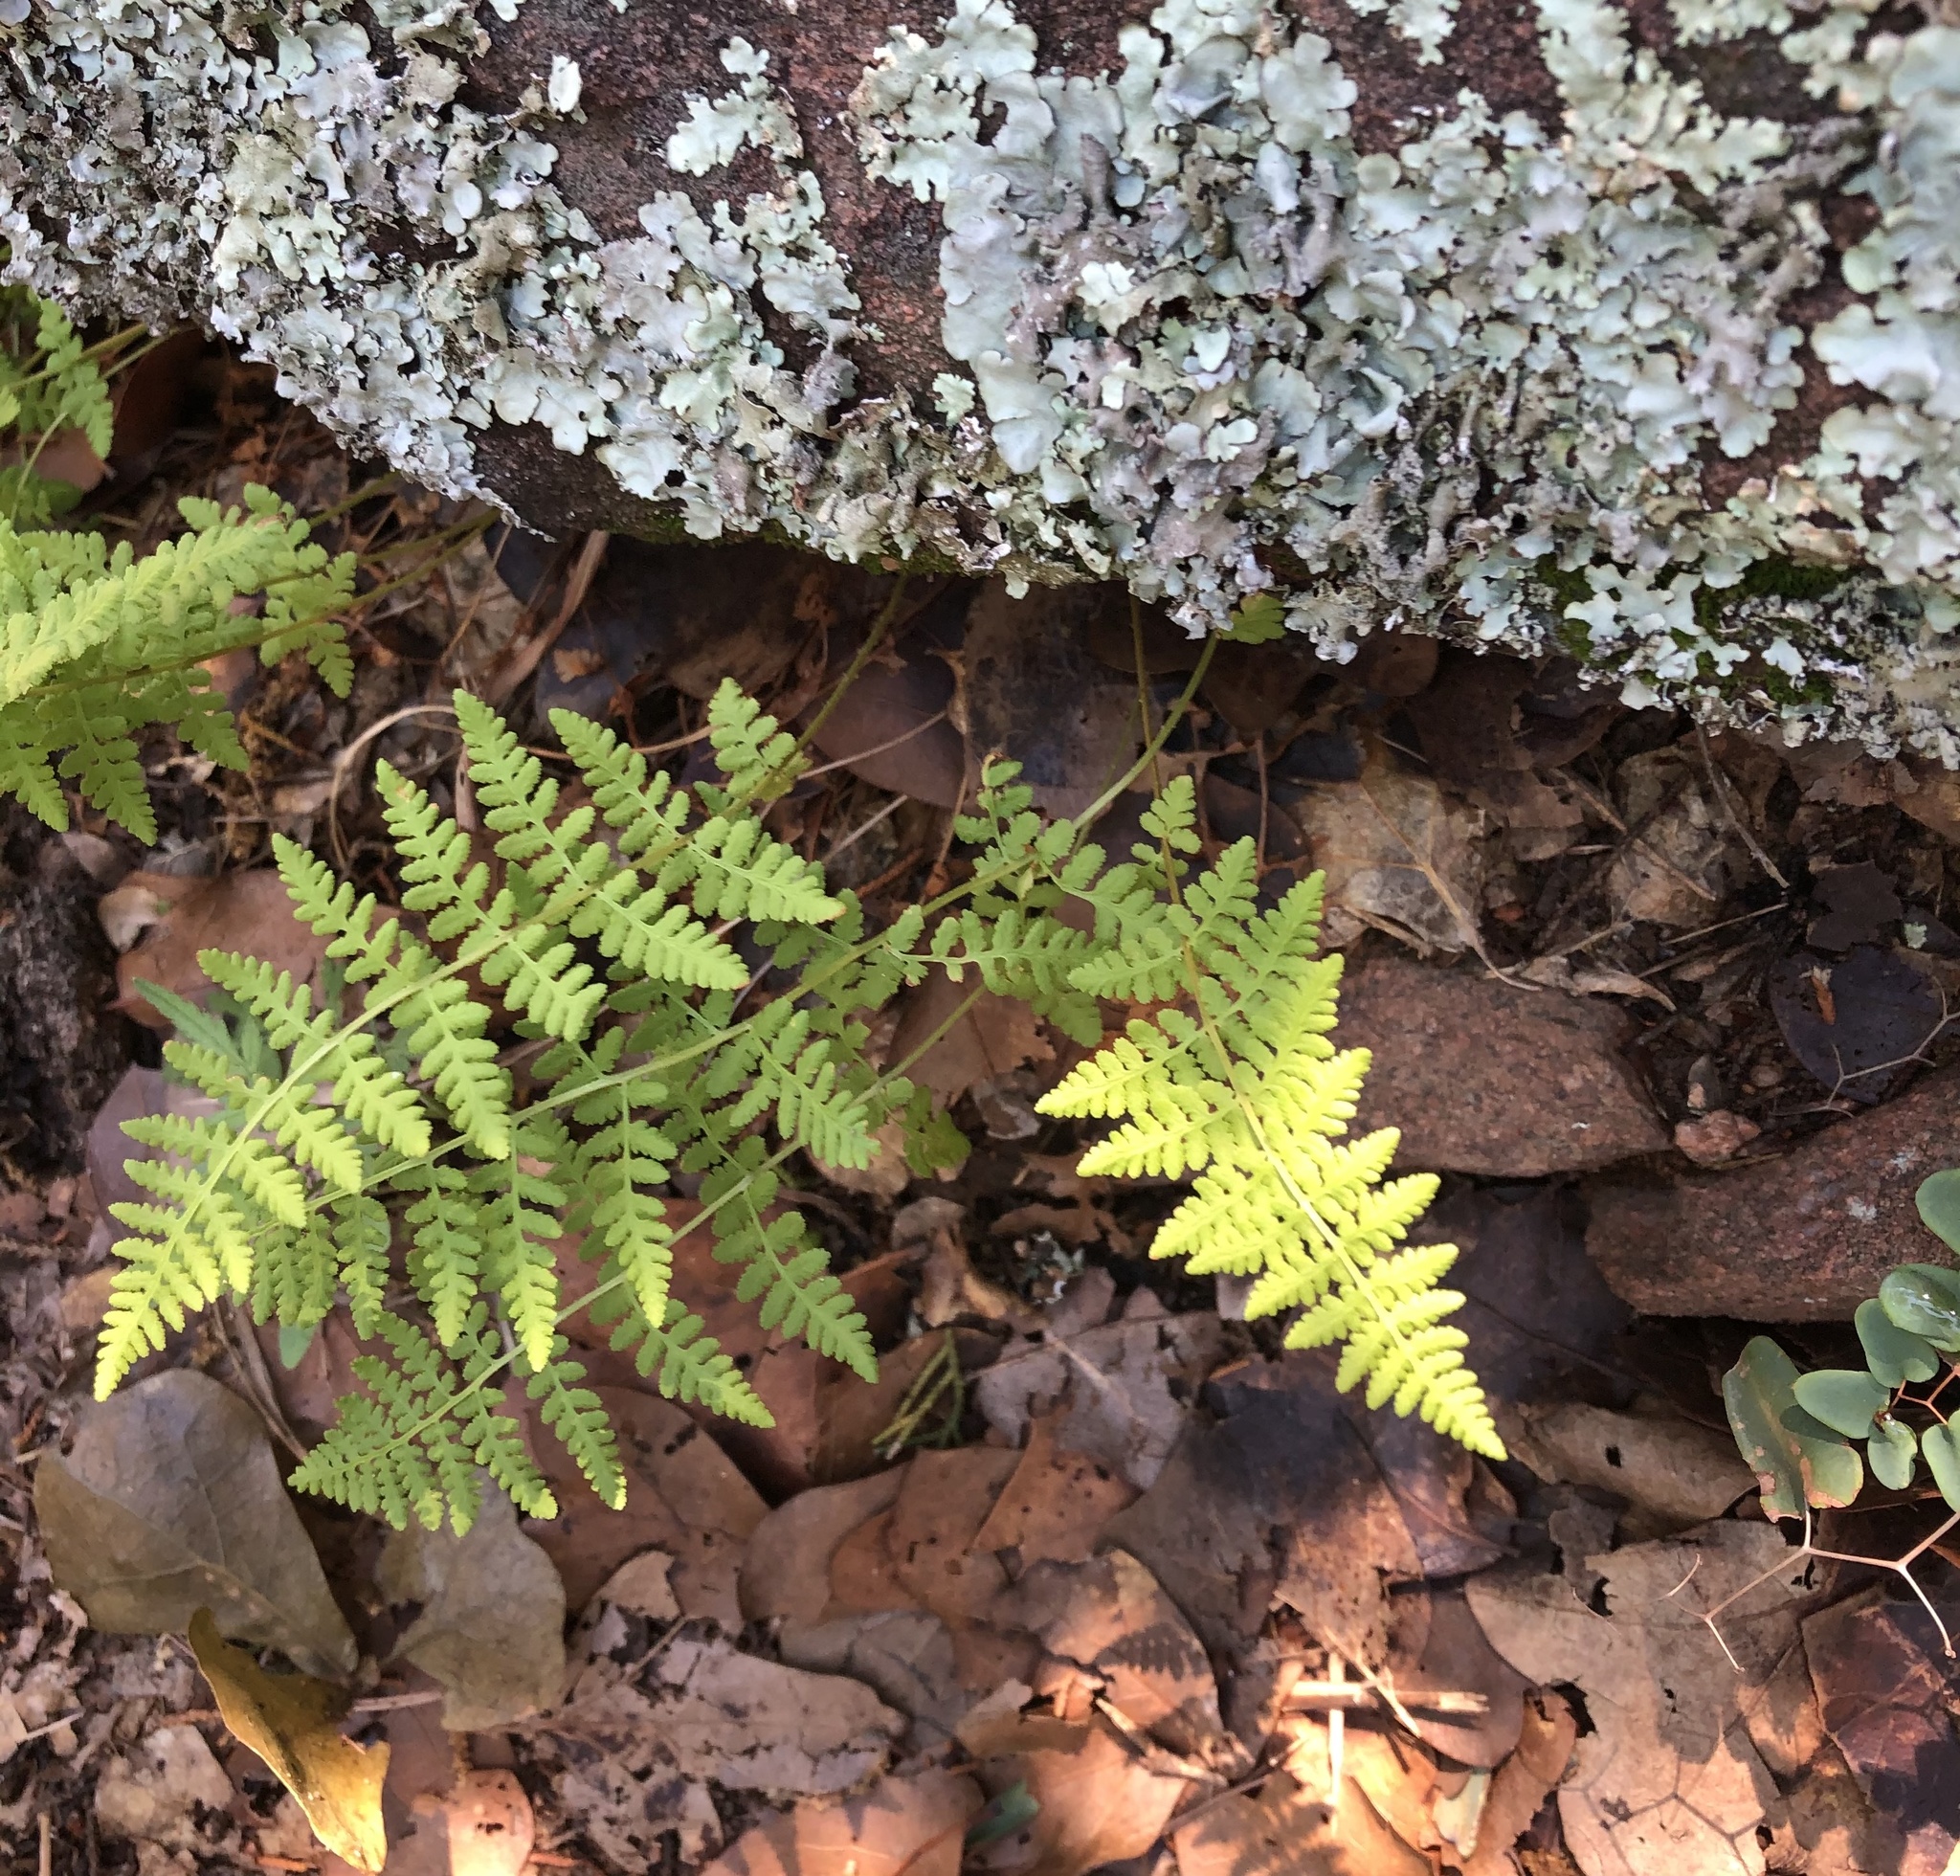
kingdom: Plantae
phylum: Tracheophyta
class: Polypodiopsida
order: Polypodiales
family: Woodsiaceae
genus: Physematium
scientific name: Physematium obtusum
